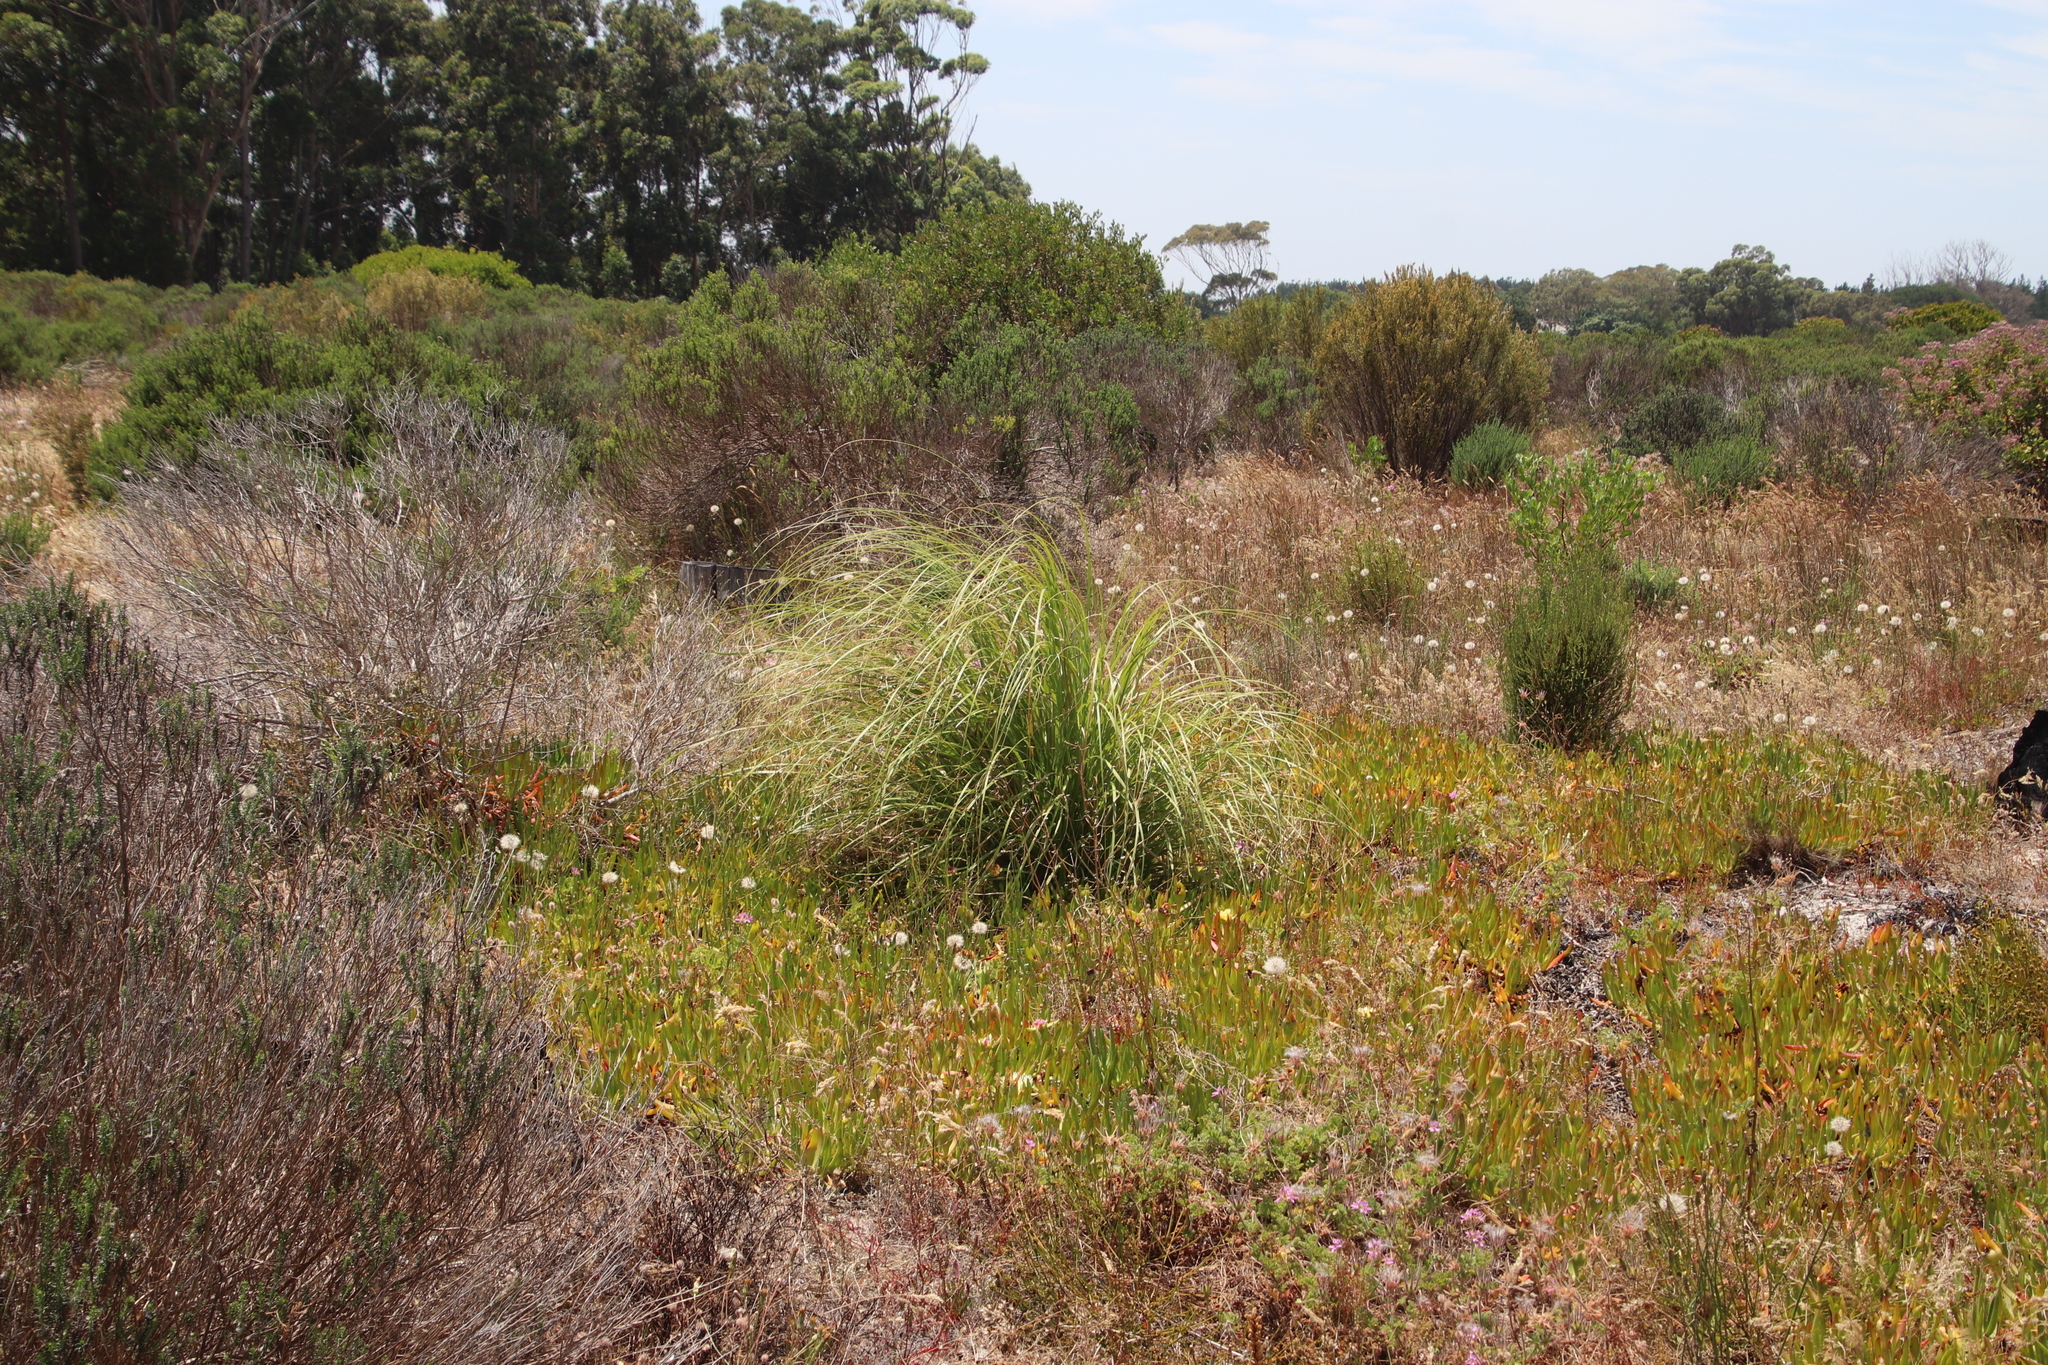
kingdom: Plantae
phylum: Tracheophyta
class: Liliopsida
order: Poales
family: Poaceae
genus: Cortaderia
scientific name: Cortaderia selloana
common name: Uruguayan pampas grass
